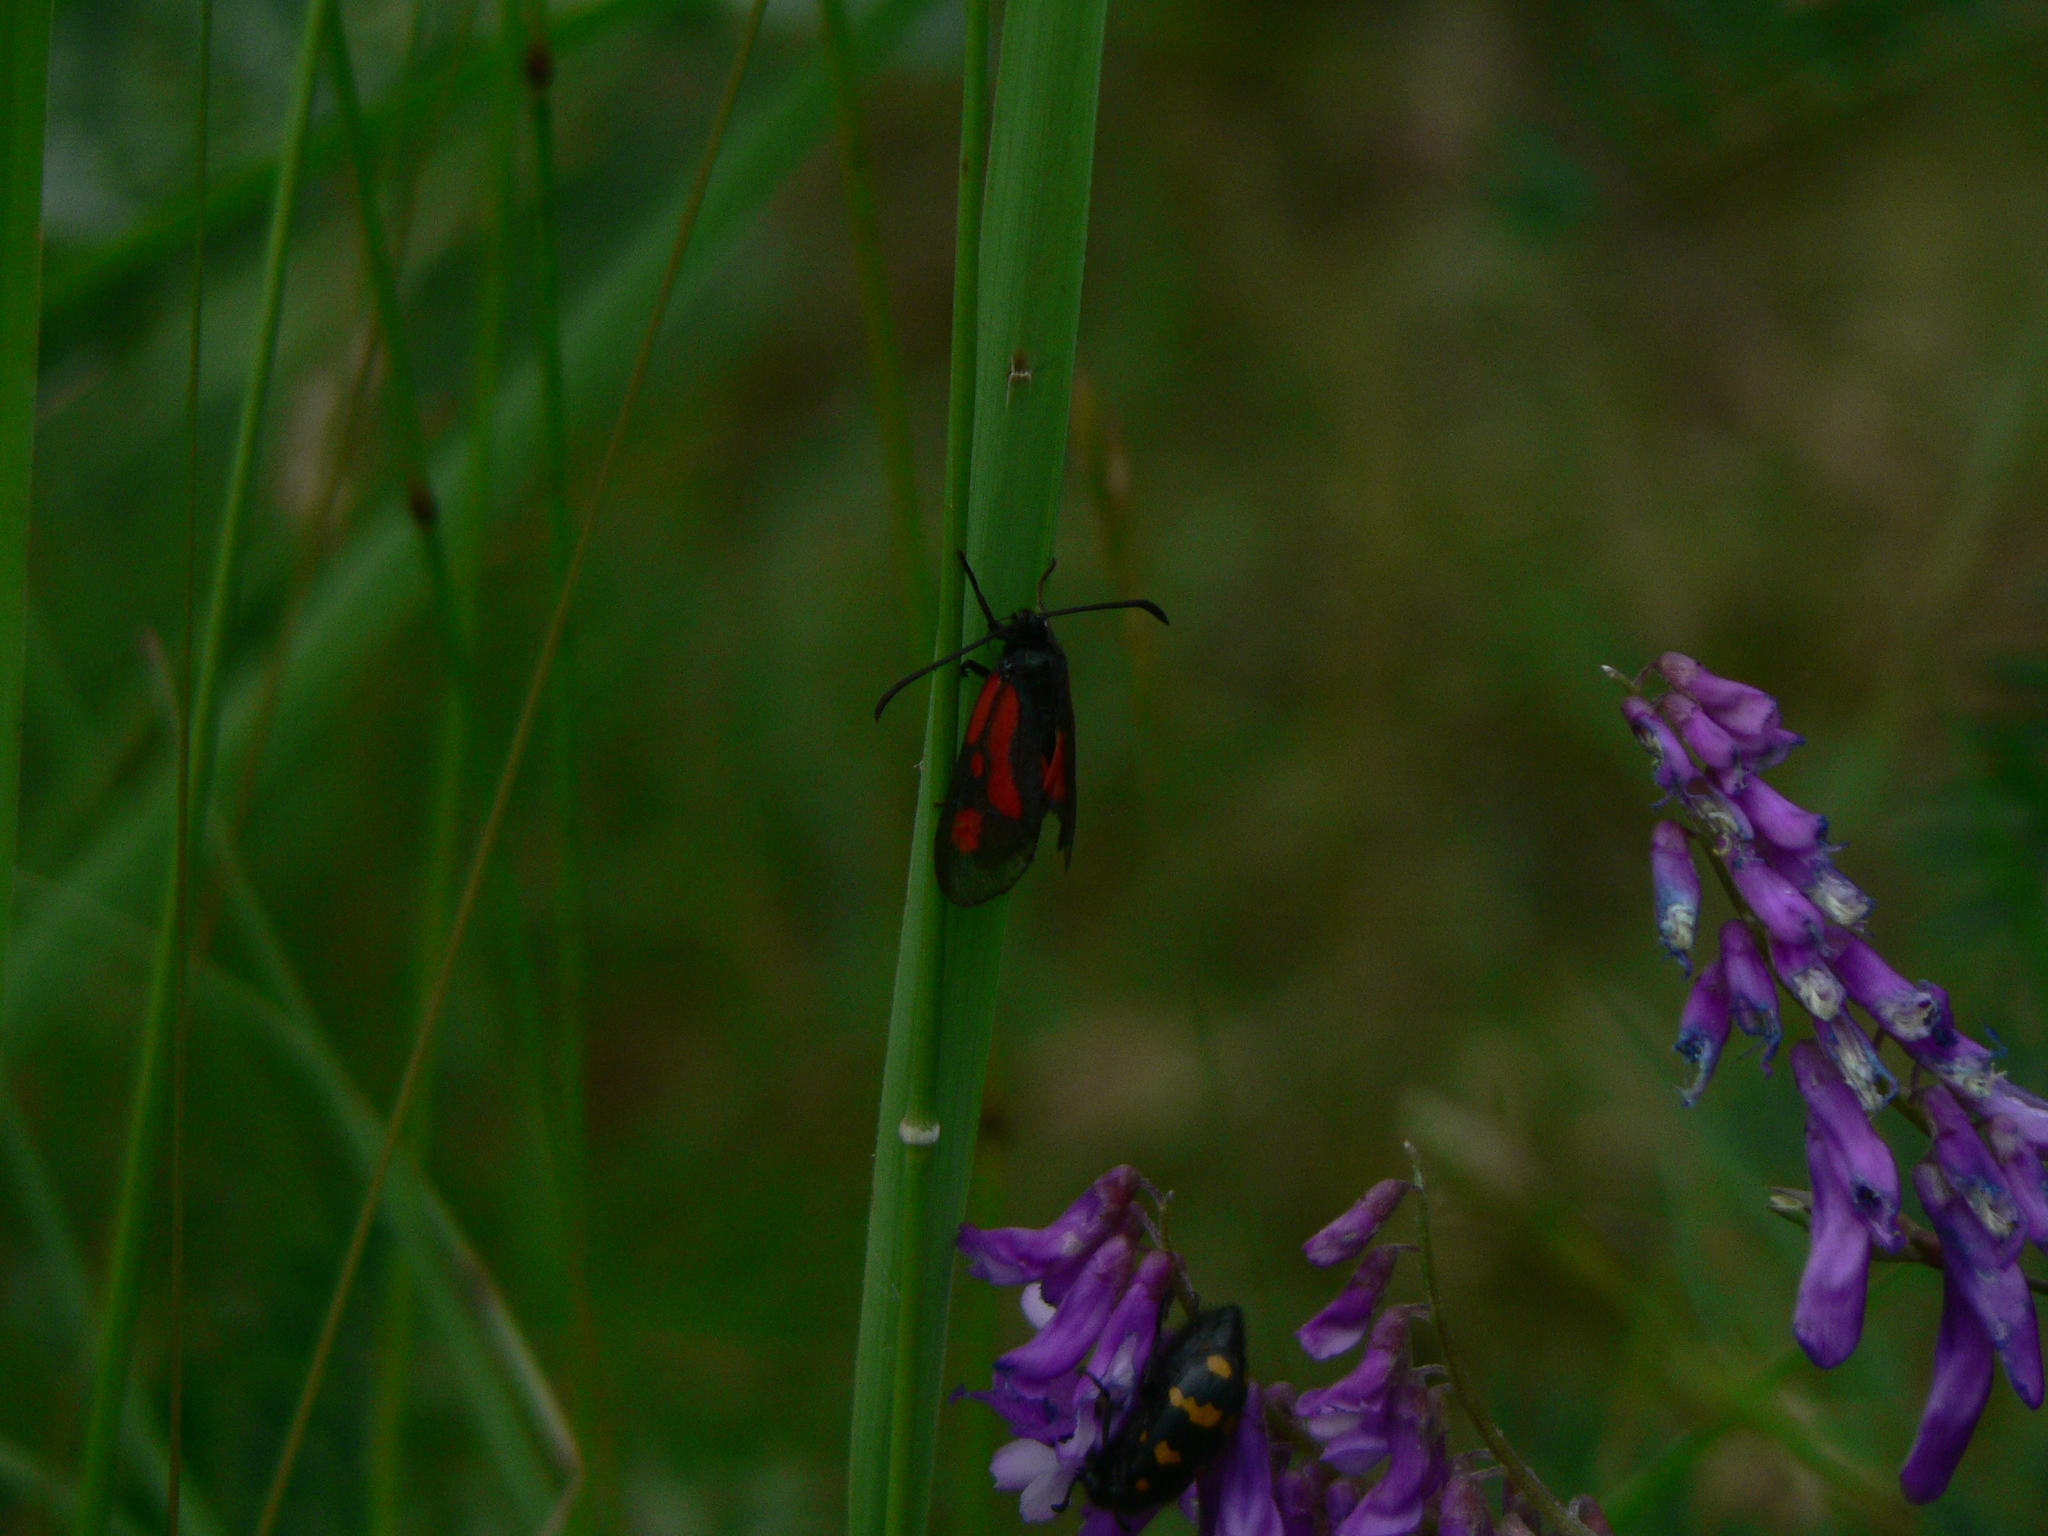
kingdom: Animalia
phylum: Arthropoda
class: Insecta
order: Lepidoptera
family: Zygaenidae
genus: Zygaena
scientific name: Zygaena romeo
